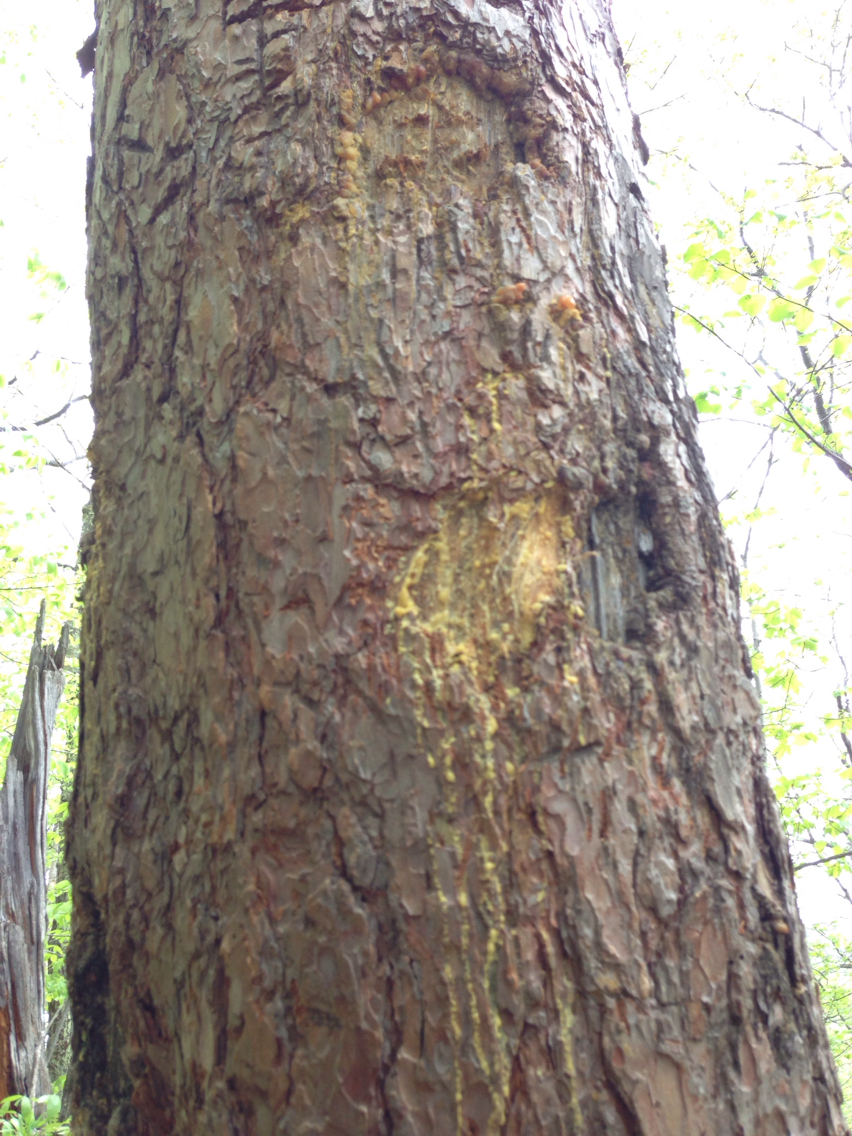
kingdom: Animalia
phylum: Chordata
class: Mammalia
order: Carnivora
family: Ursidae
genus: Ursus
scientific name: Ursus americanus
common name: American black bear
